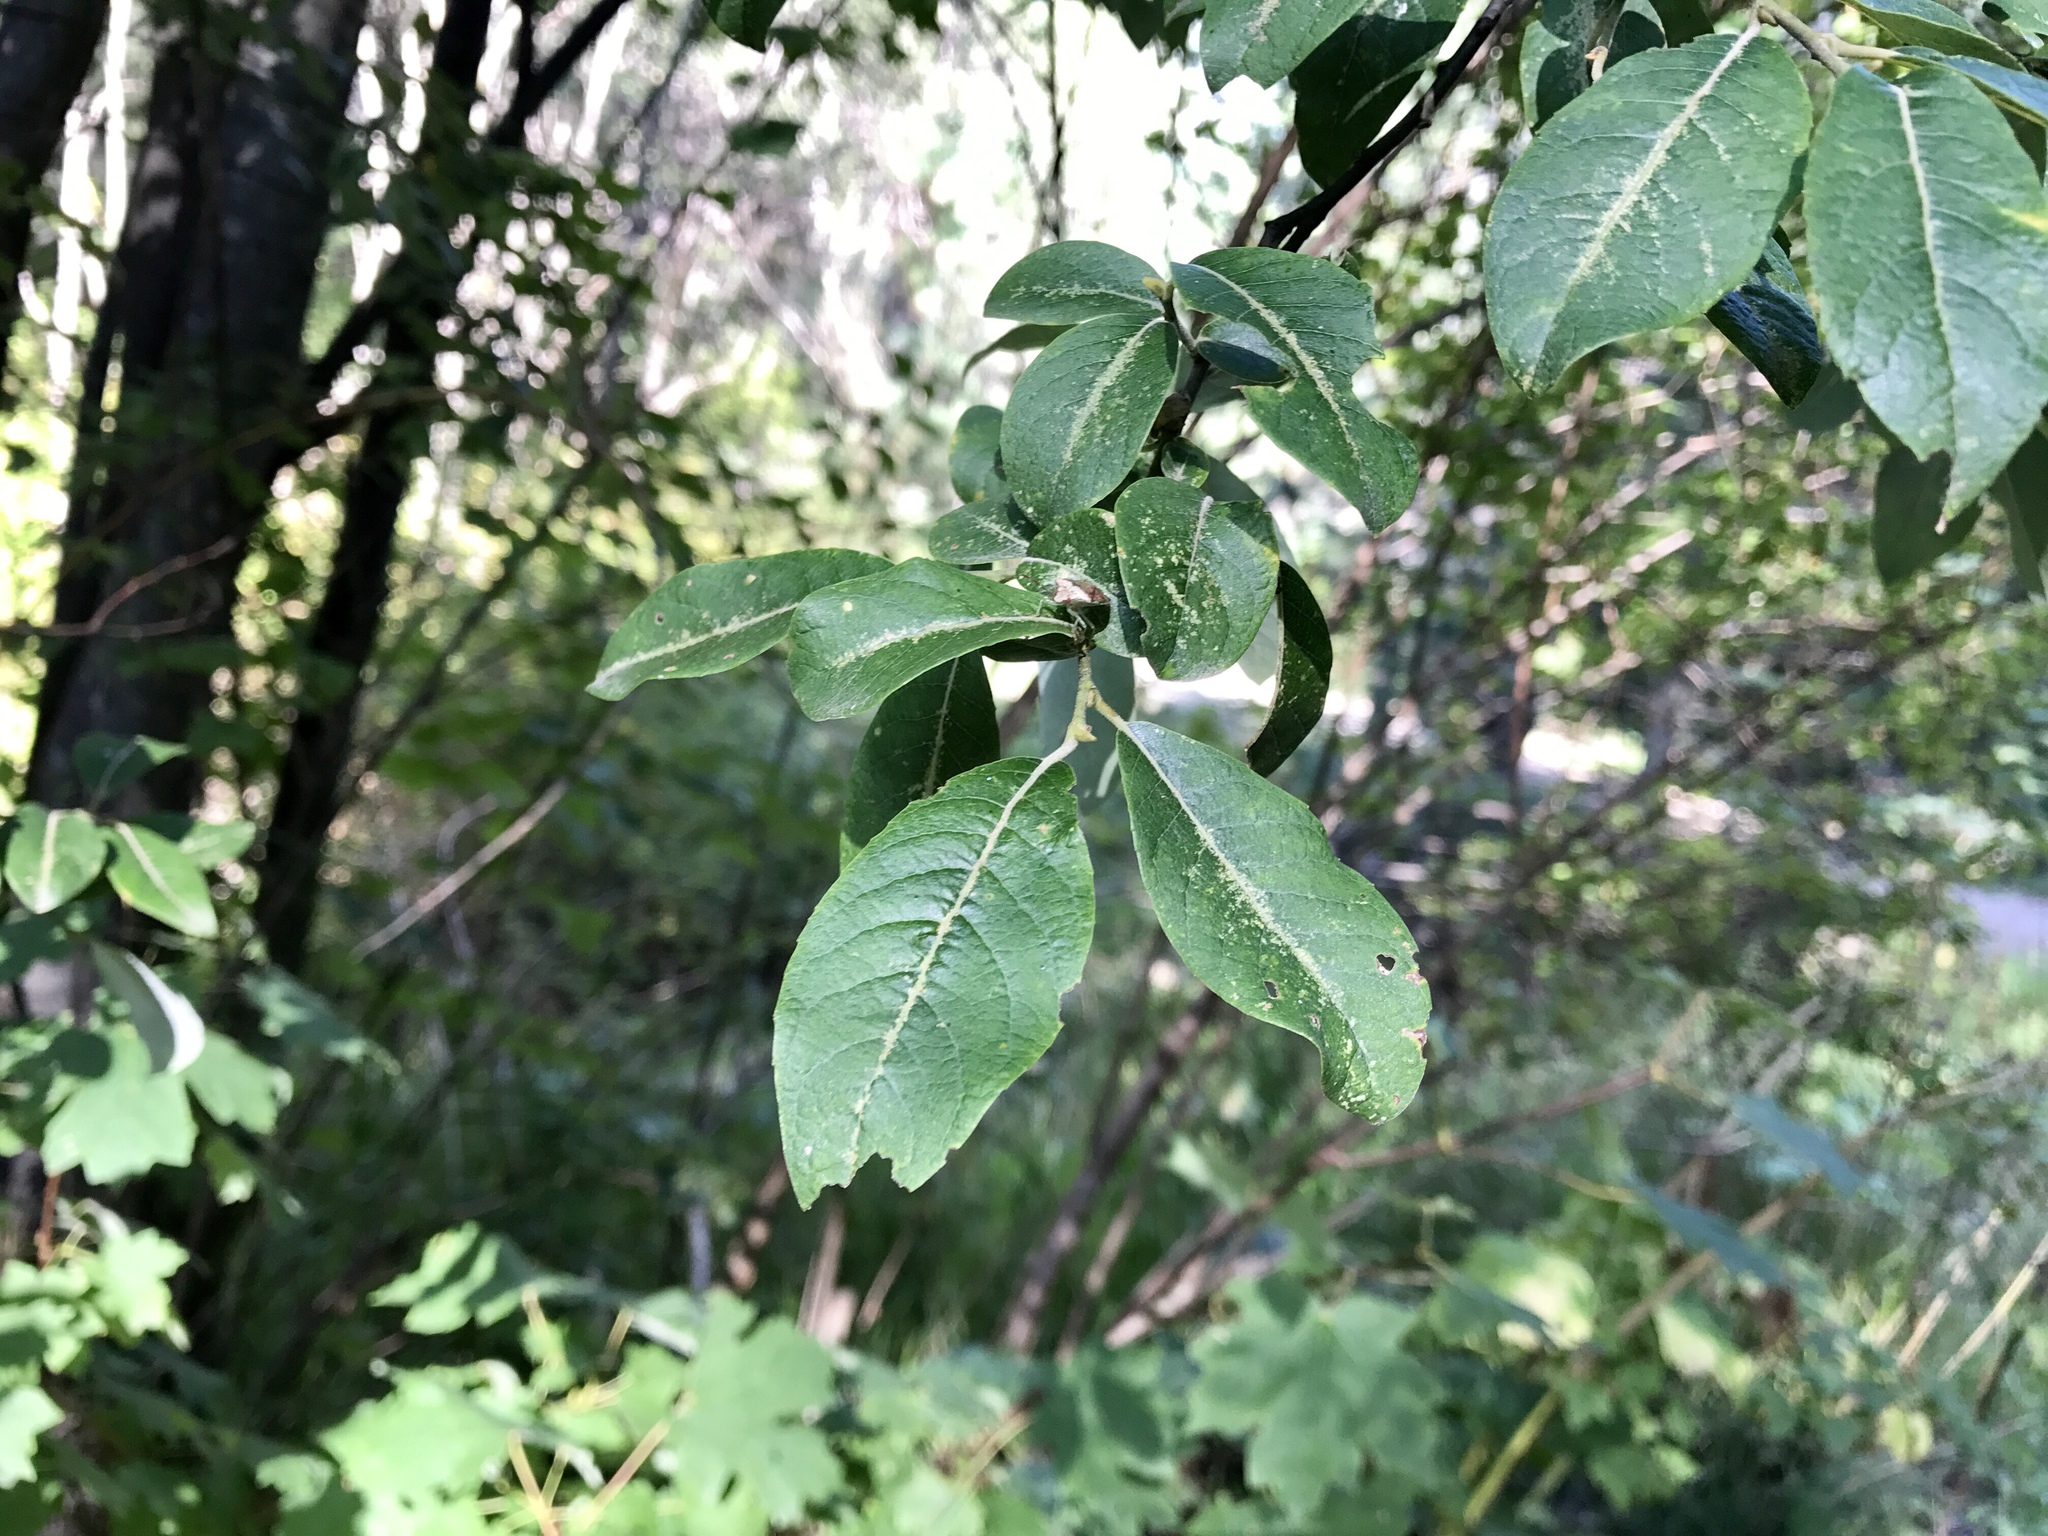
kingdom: Plantae
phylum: Tracheophyta
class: Magnoliopsida
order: Dipsacales
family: Viburnaceae
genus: Sambucus
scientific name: Sambucus cerulea
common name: Blue elder
